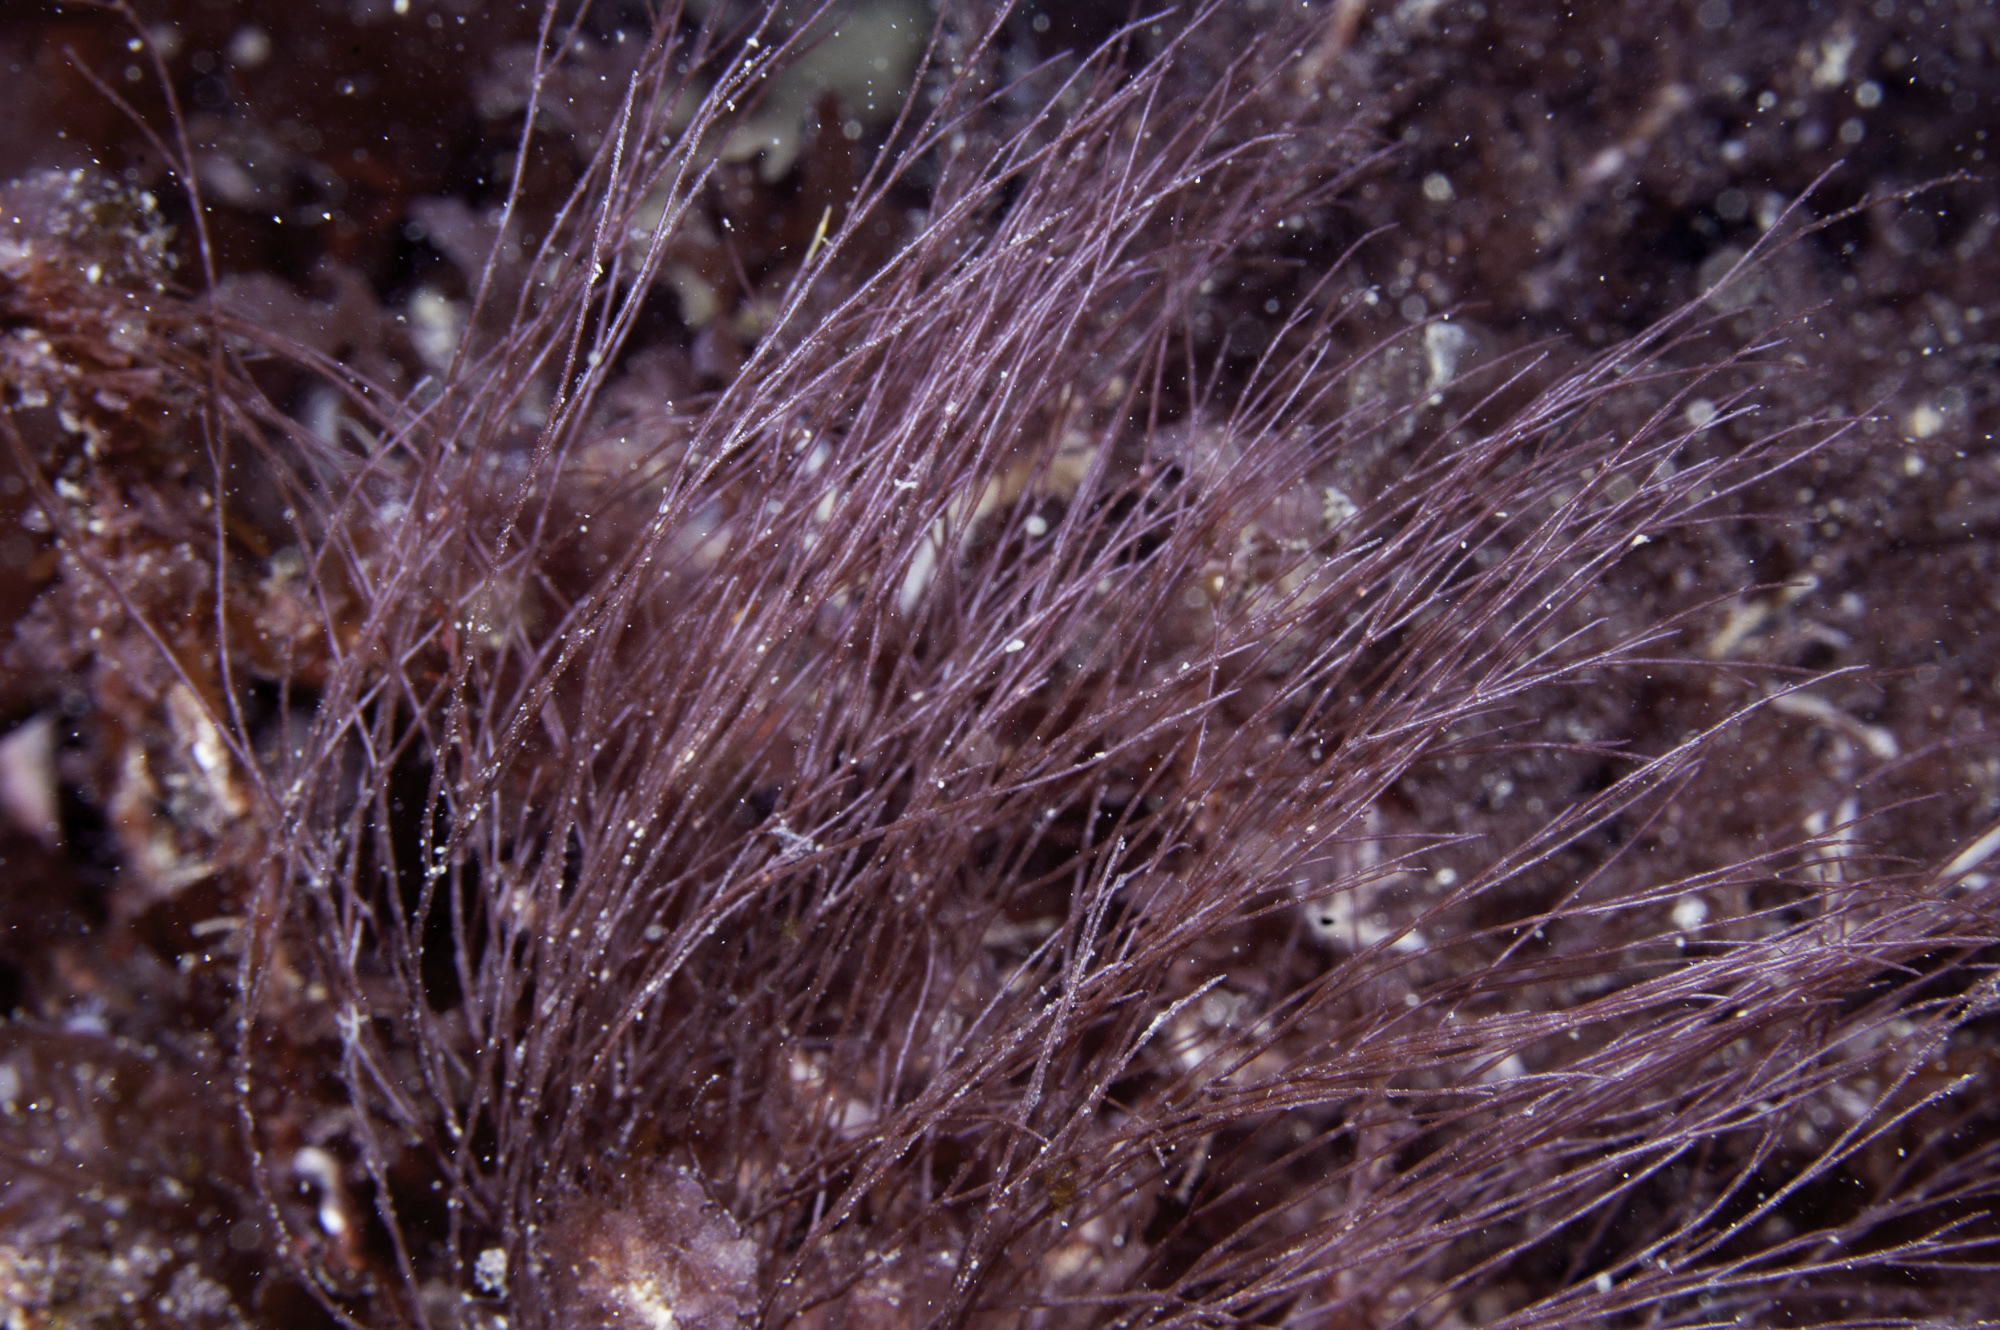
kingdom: Plantae
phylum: Rhodophyta
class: Florideophyceae
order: Ceramiales
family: Wrangeliaceae
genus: Halurus
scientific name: Halurus flosculosus
